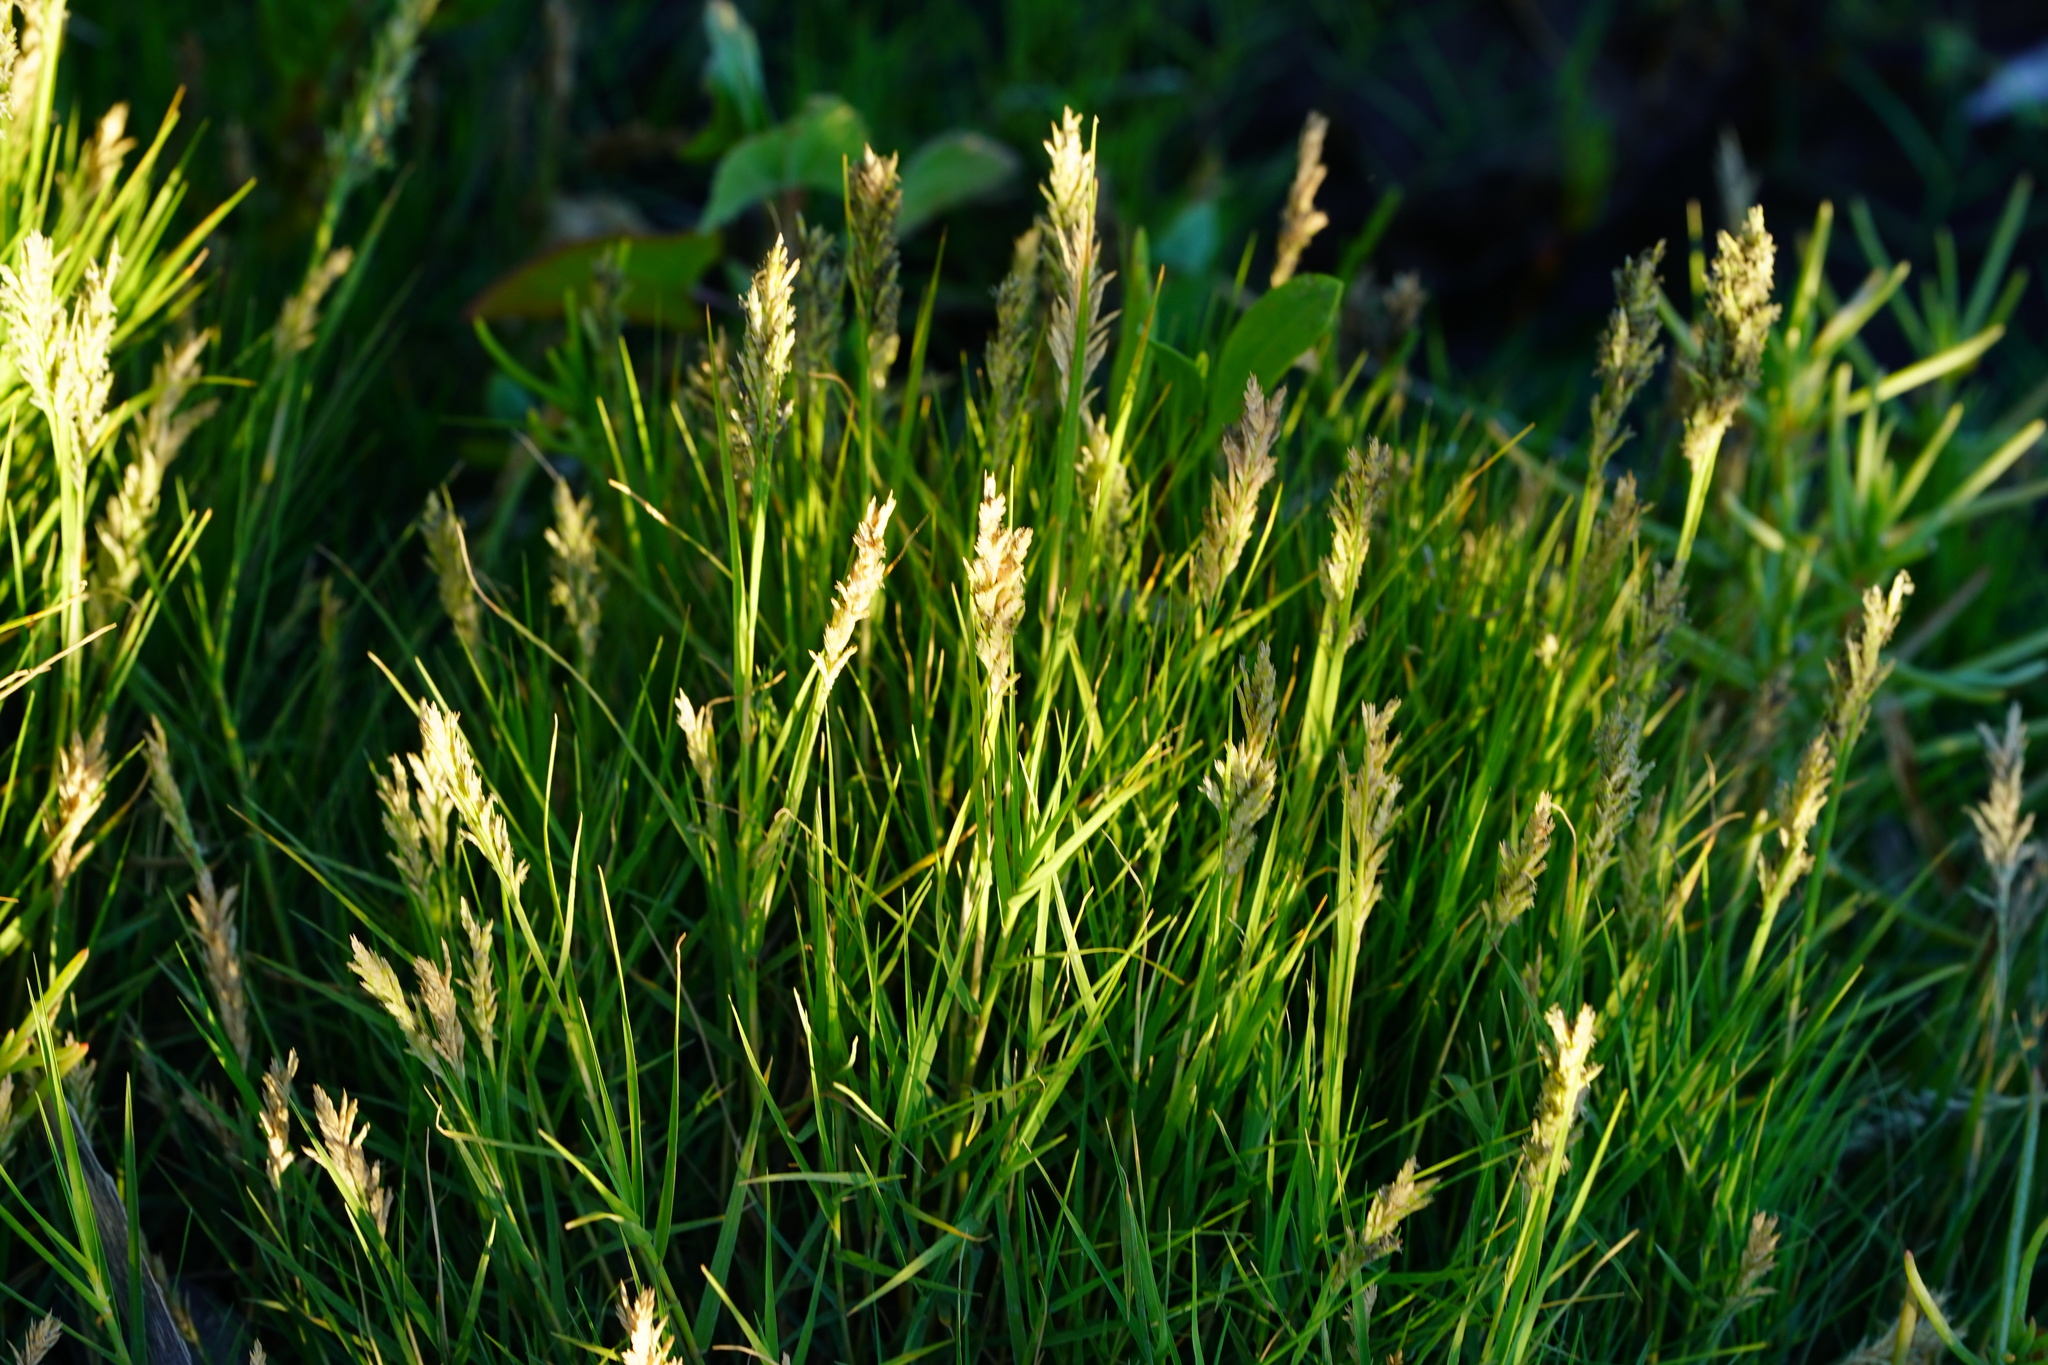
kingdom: Plantae
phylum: Tracheophyta
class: Liliopsida
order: Poales
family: Poaceae
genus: Distichlis
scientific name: Distichlis spicata
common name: Saltgrass
